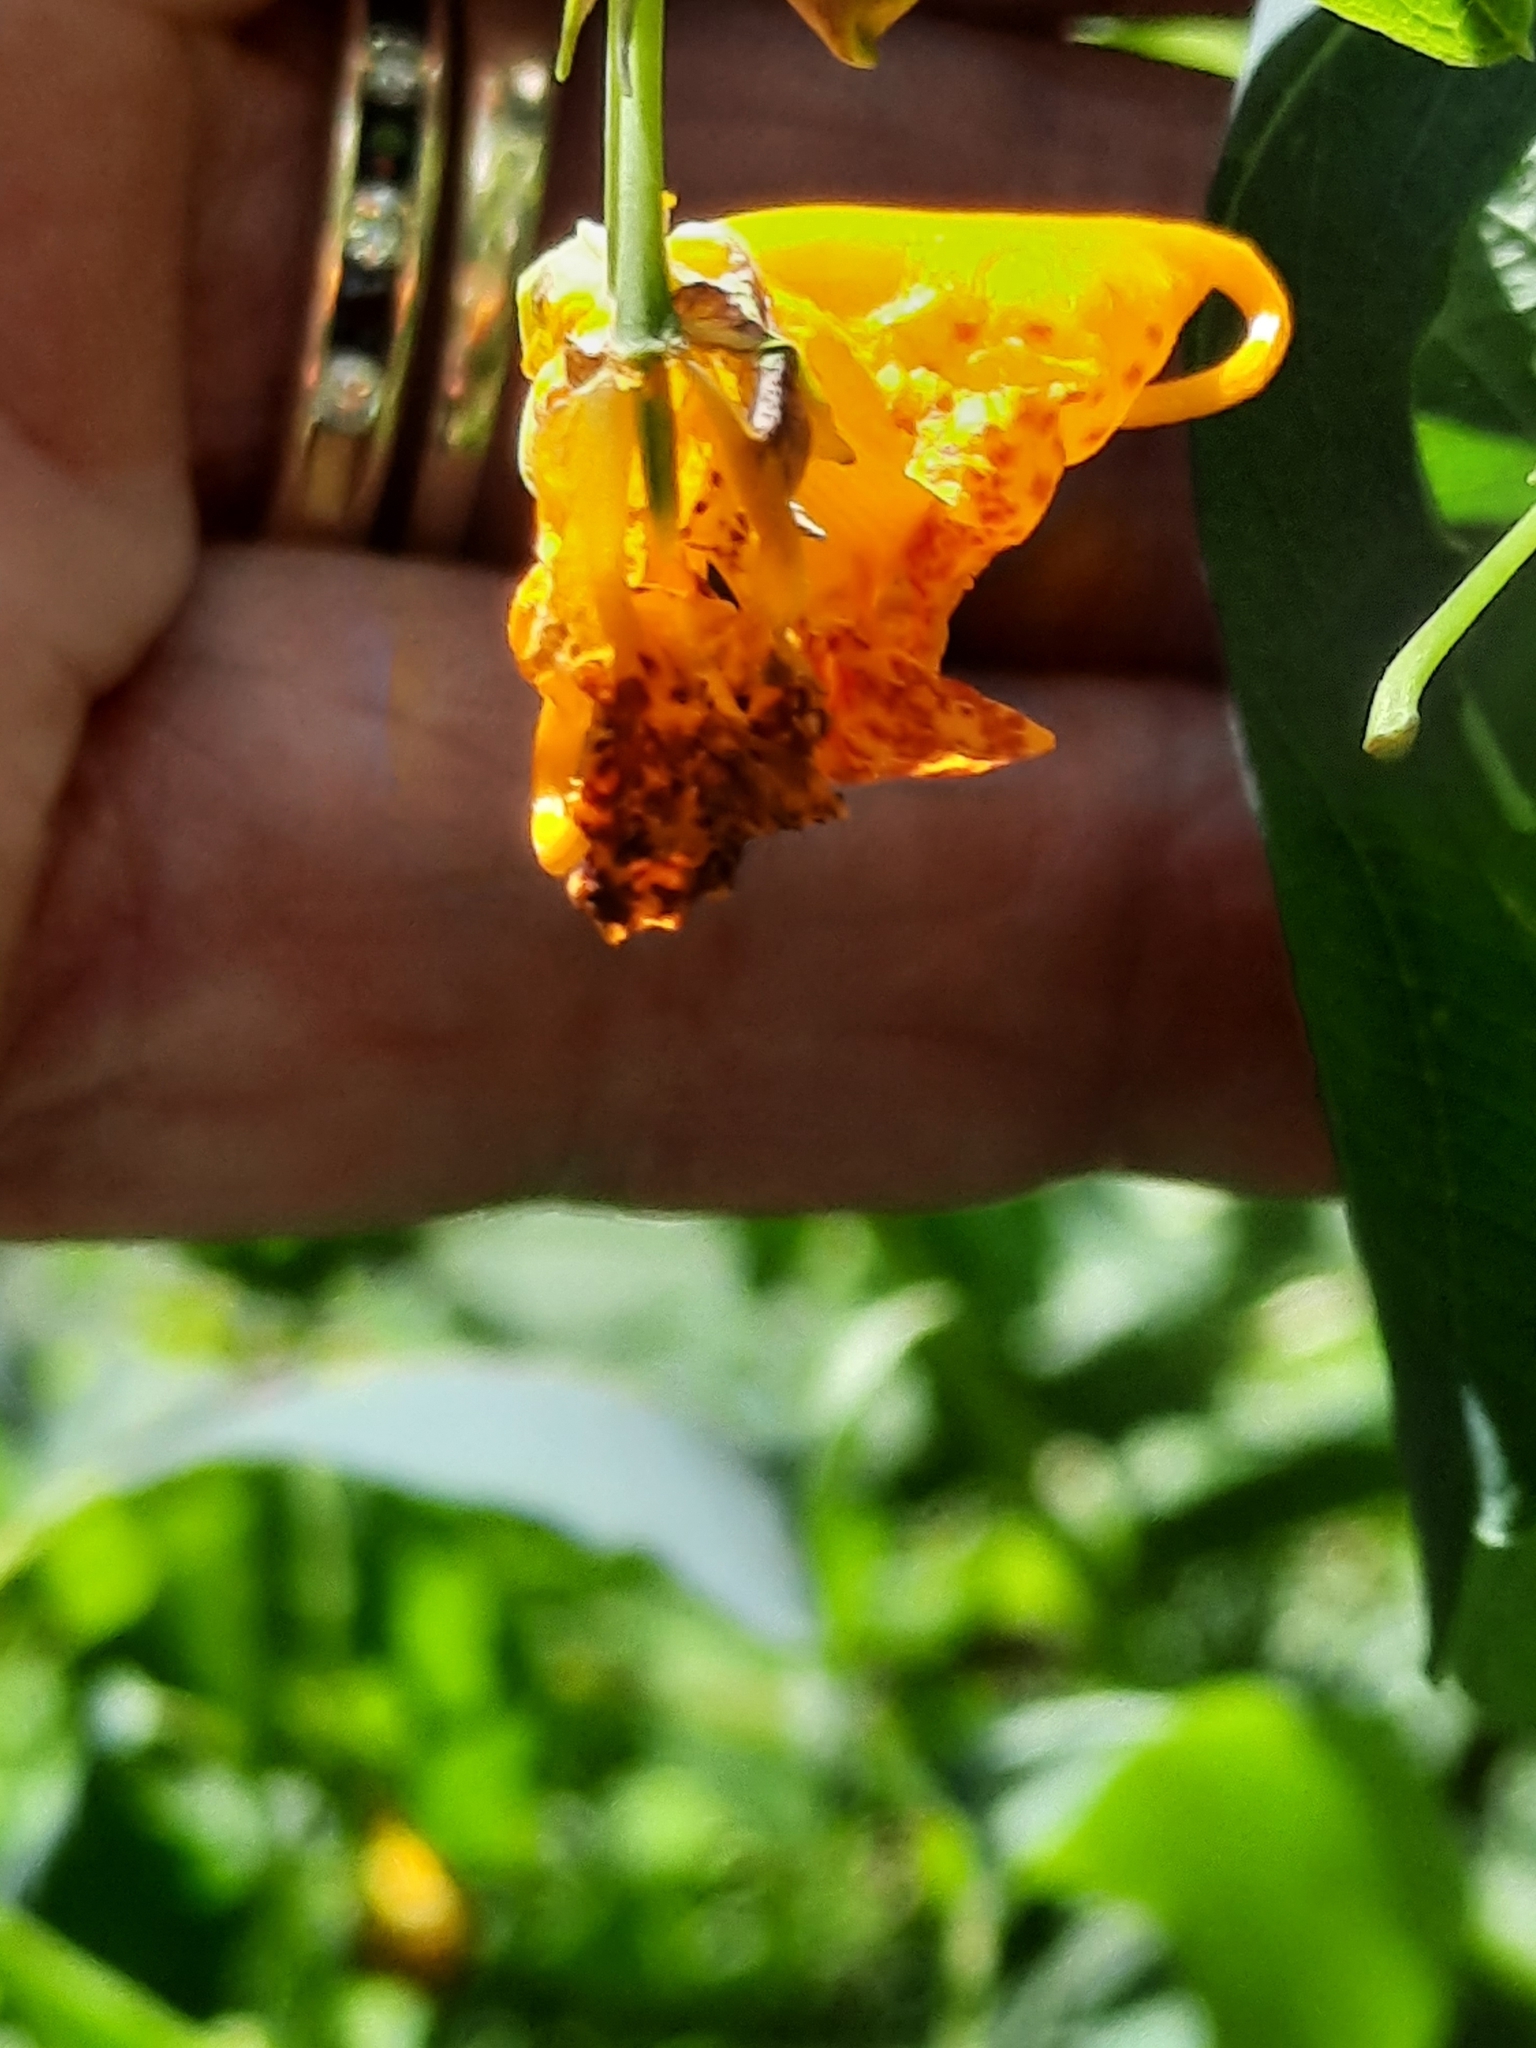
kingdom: Plantae
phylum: Tracheophyta
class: Magnoliopsida
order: Ericales
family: Balsaminaceae
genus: Impatiens
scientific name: Impatiens capensis
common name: Orange balsam
